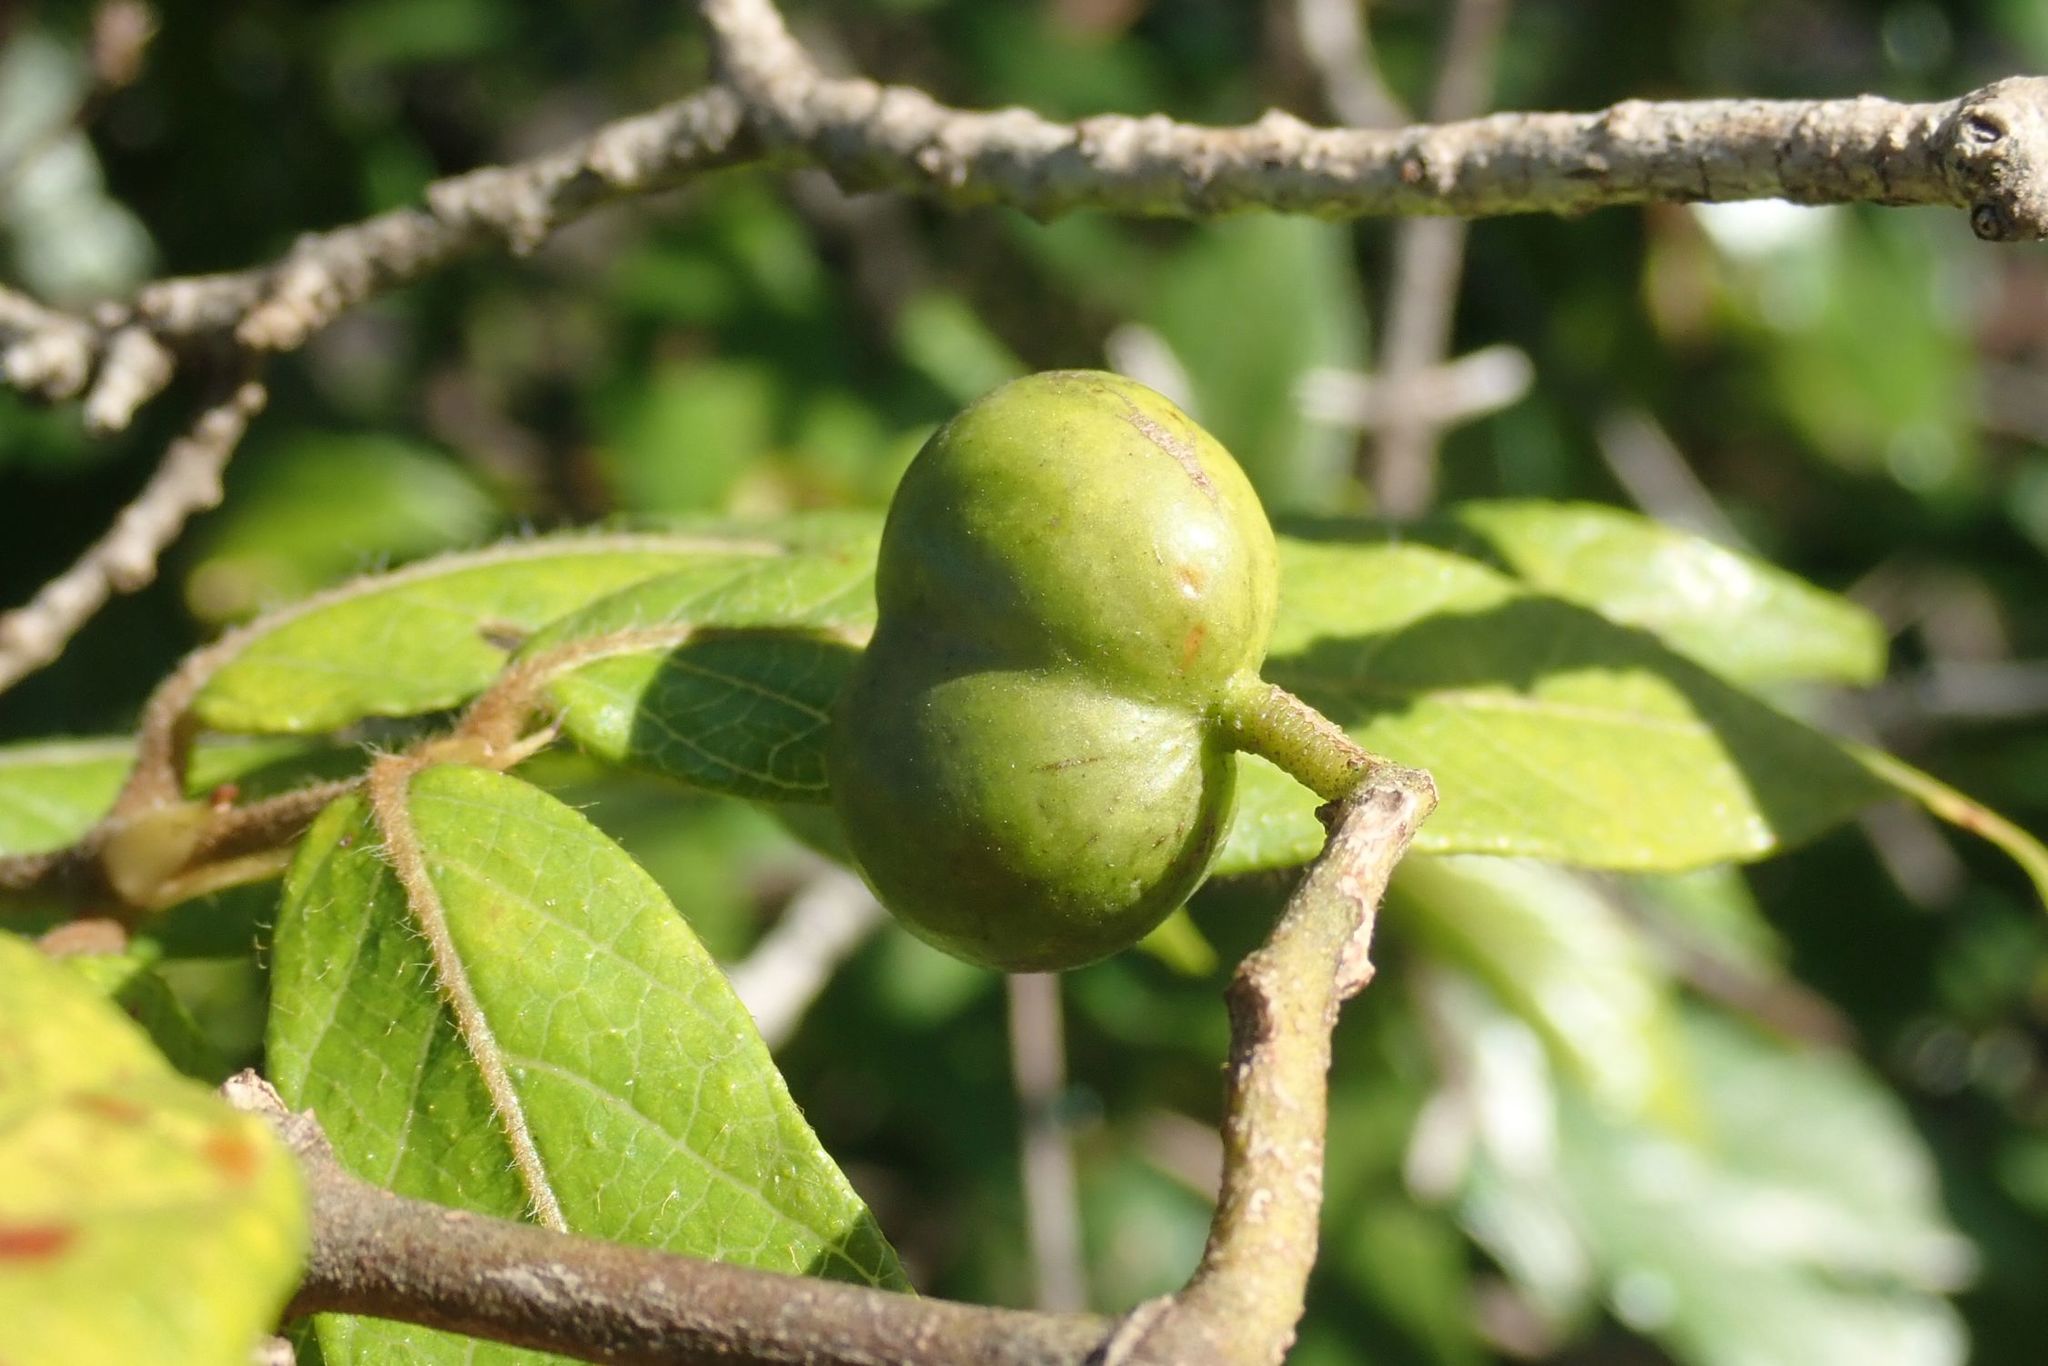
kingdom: Plantae
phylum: Tracheophyta
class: Magnoliopsida
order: Gentianales
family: Rubiaceae
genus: Keetia
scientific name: Keetia gueinzii
